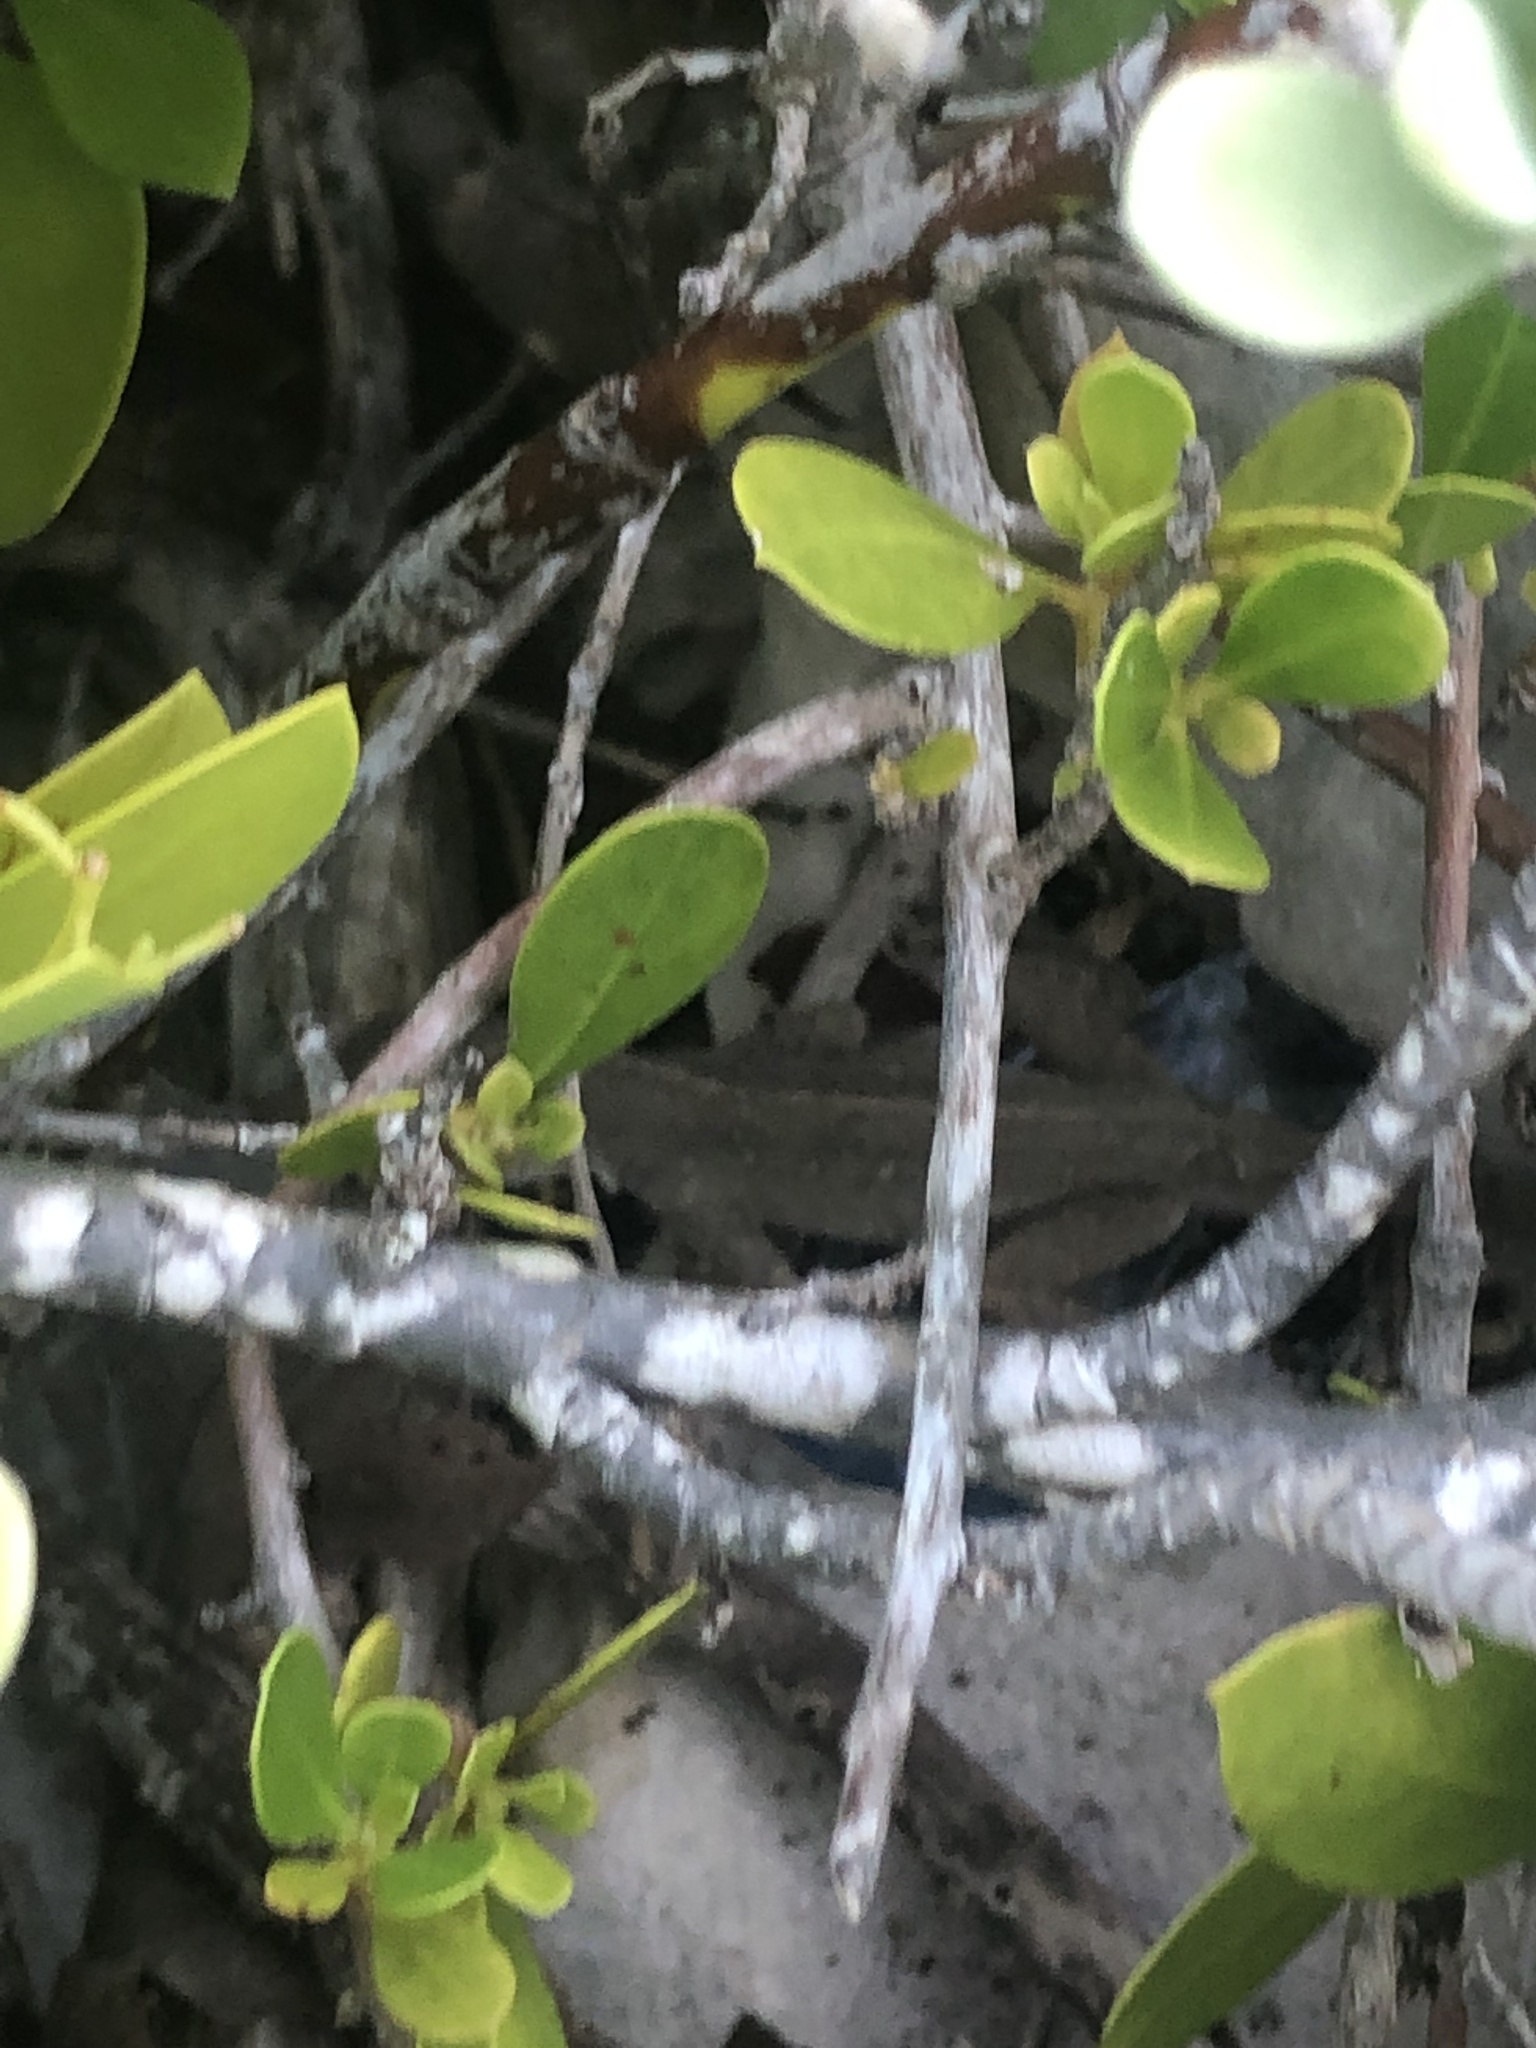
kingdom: Animalia
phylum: Chordata
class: Squamata
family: Dactyloidae
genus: Anolis
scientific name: Anolis sagrei
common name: Brown anole
